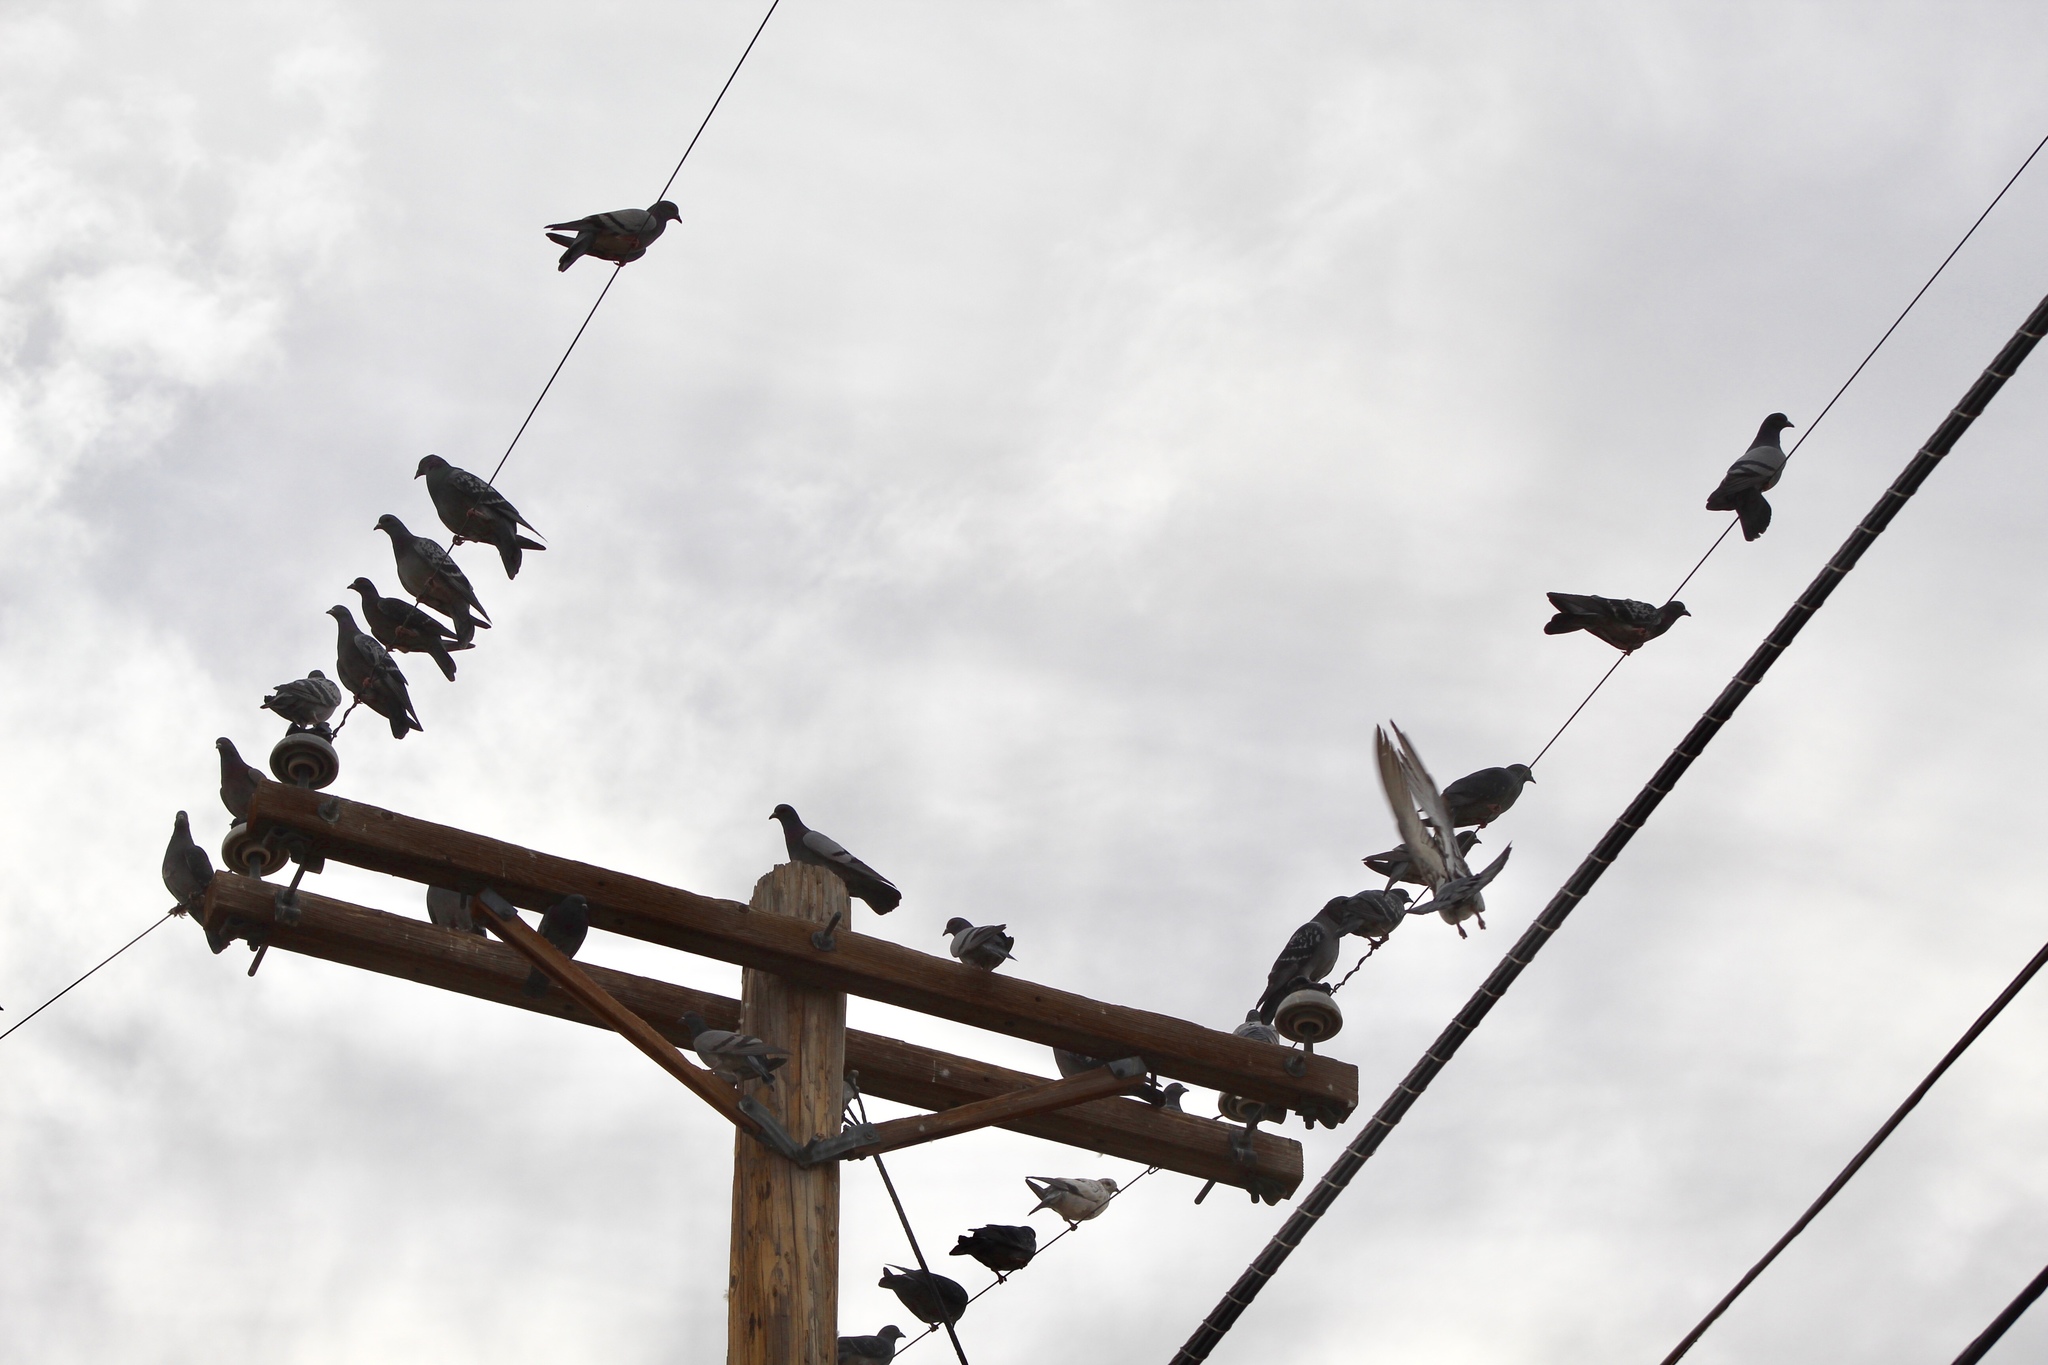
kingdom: Animalia
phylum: Chordata
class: Aves
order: Columbiformes
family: Columbidae
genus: Columba
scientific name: Columba livia
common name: Rock pigeon
